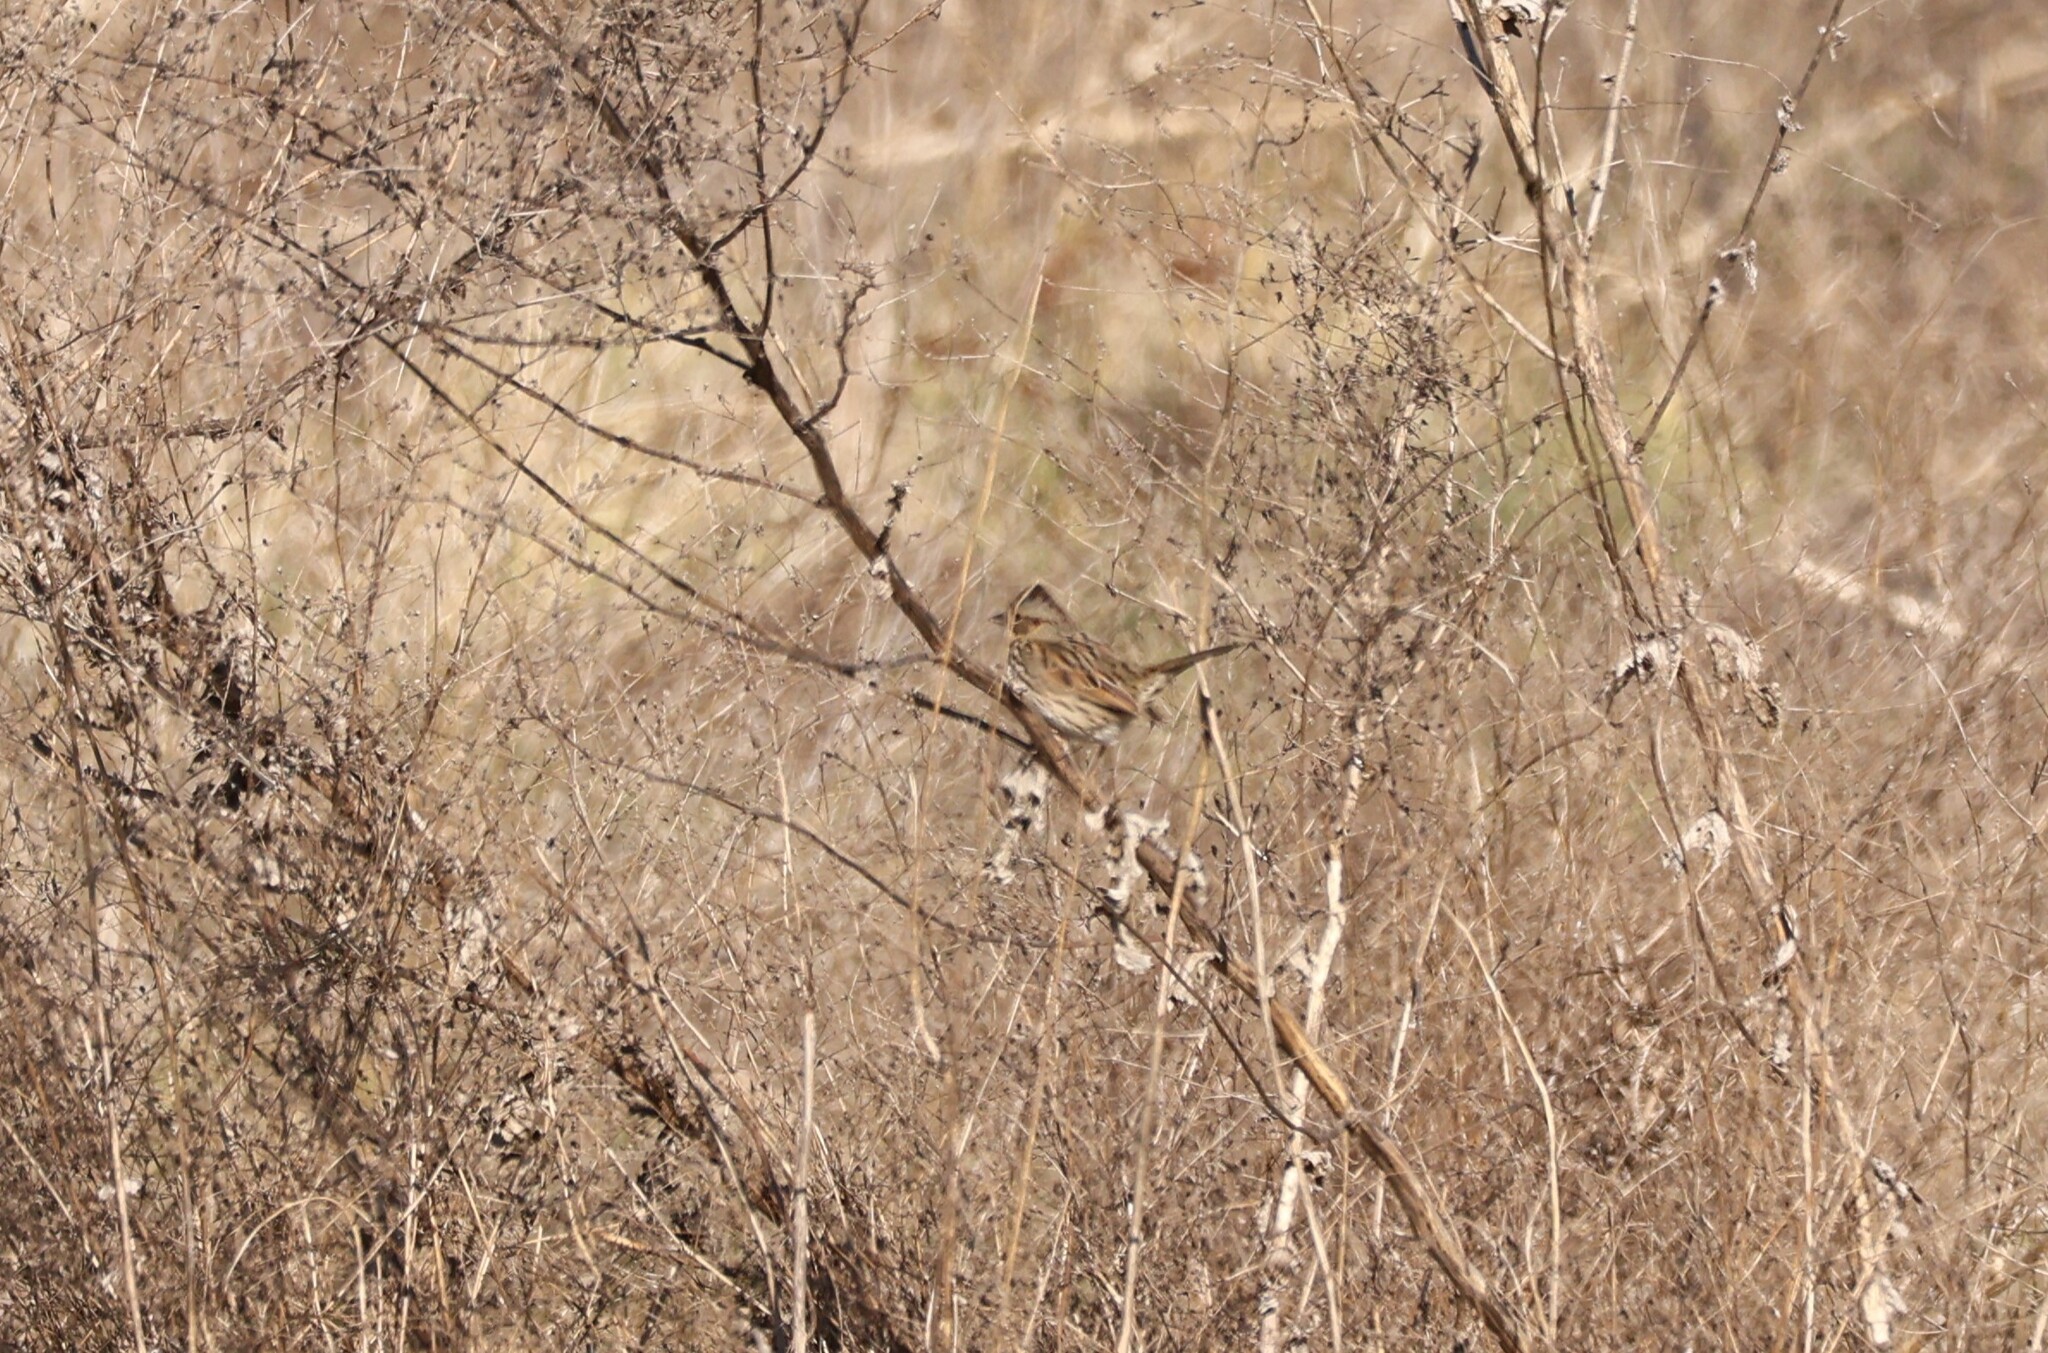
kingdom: Animalia
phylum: Chordata
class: Aves
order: Passeriformes
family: Passerellidae
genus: Melospiza
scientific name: Melospiza lincolnii
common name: Lincoln's sparrow
